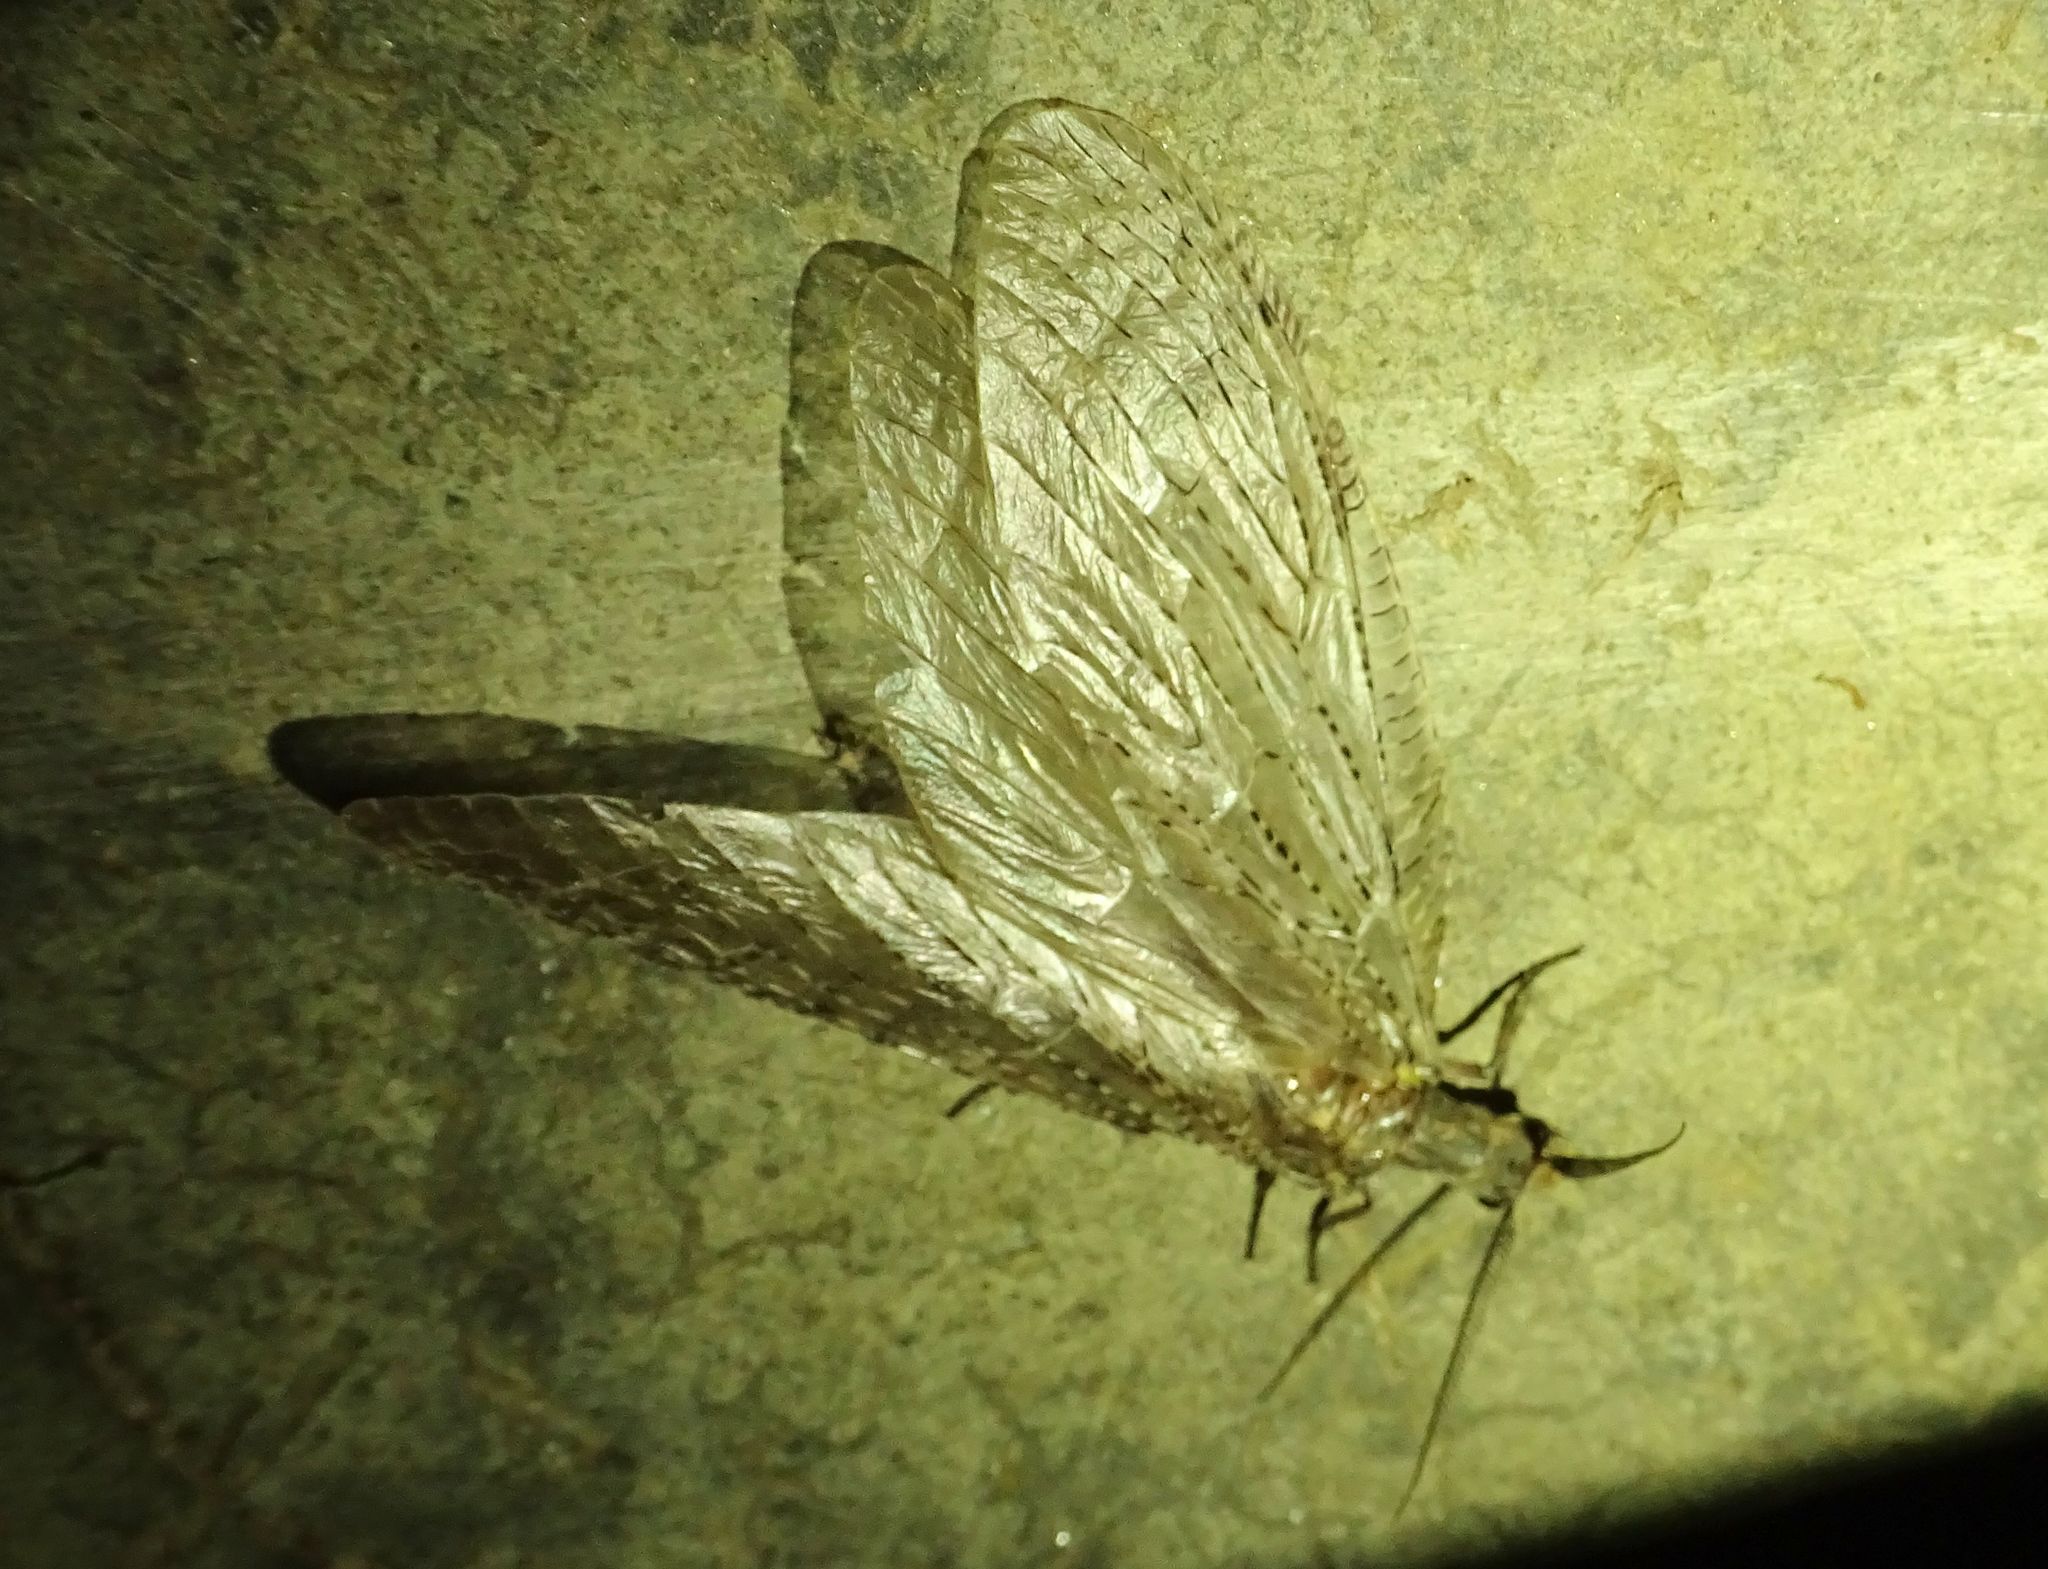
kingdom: Animalia
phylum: Arthropoda
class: Insecta
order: Megaloptera
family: Corydalidae
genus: Chauliodes
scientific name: Chauliodes pectinicornis
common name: Summer fishfly
